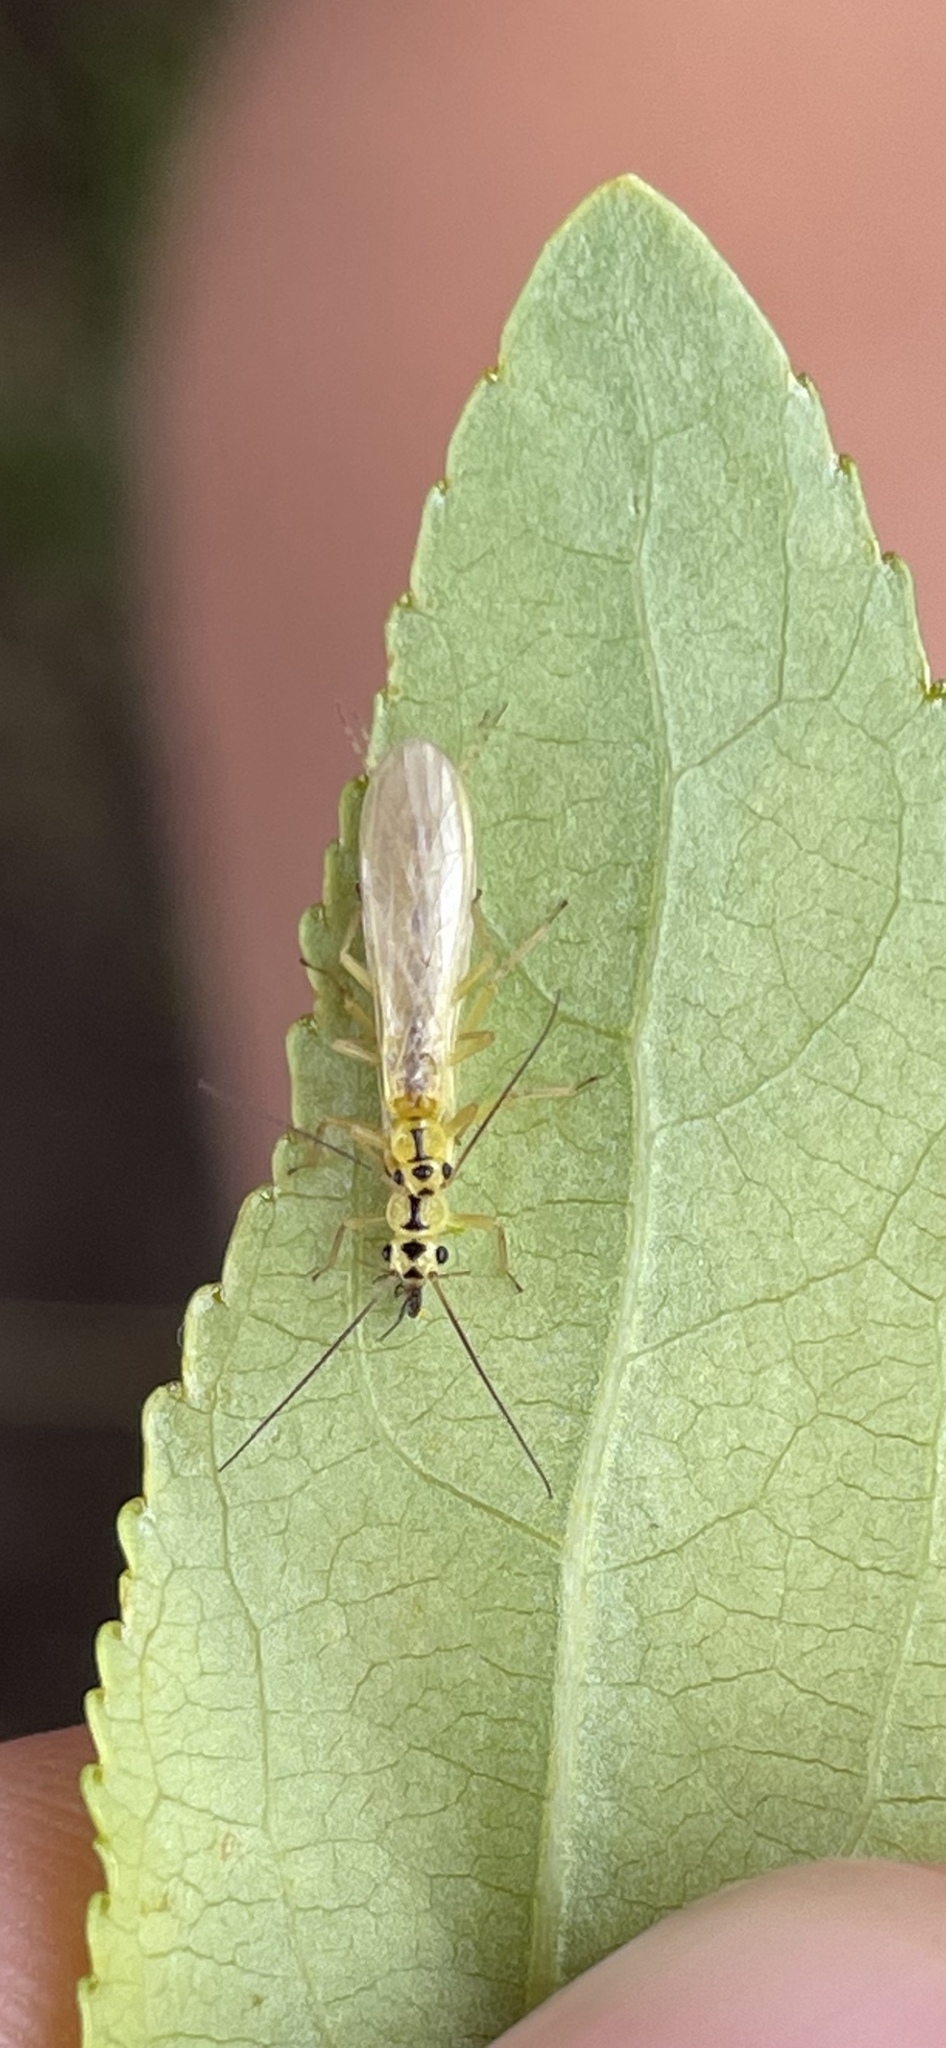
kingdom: Animalia
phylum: Arthropoda
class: Insecta
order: Plecoptera
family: Chloroperlidae
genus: Triznaka
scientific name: Triznaka signata
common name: Striped sallfly
